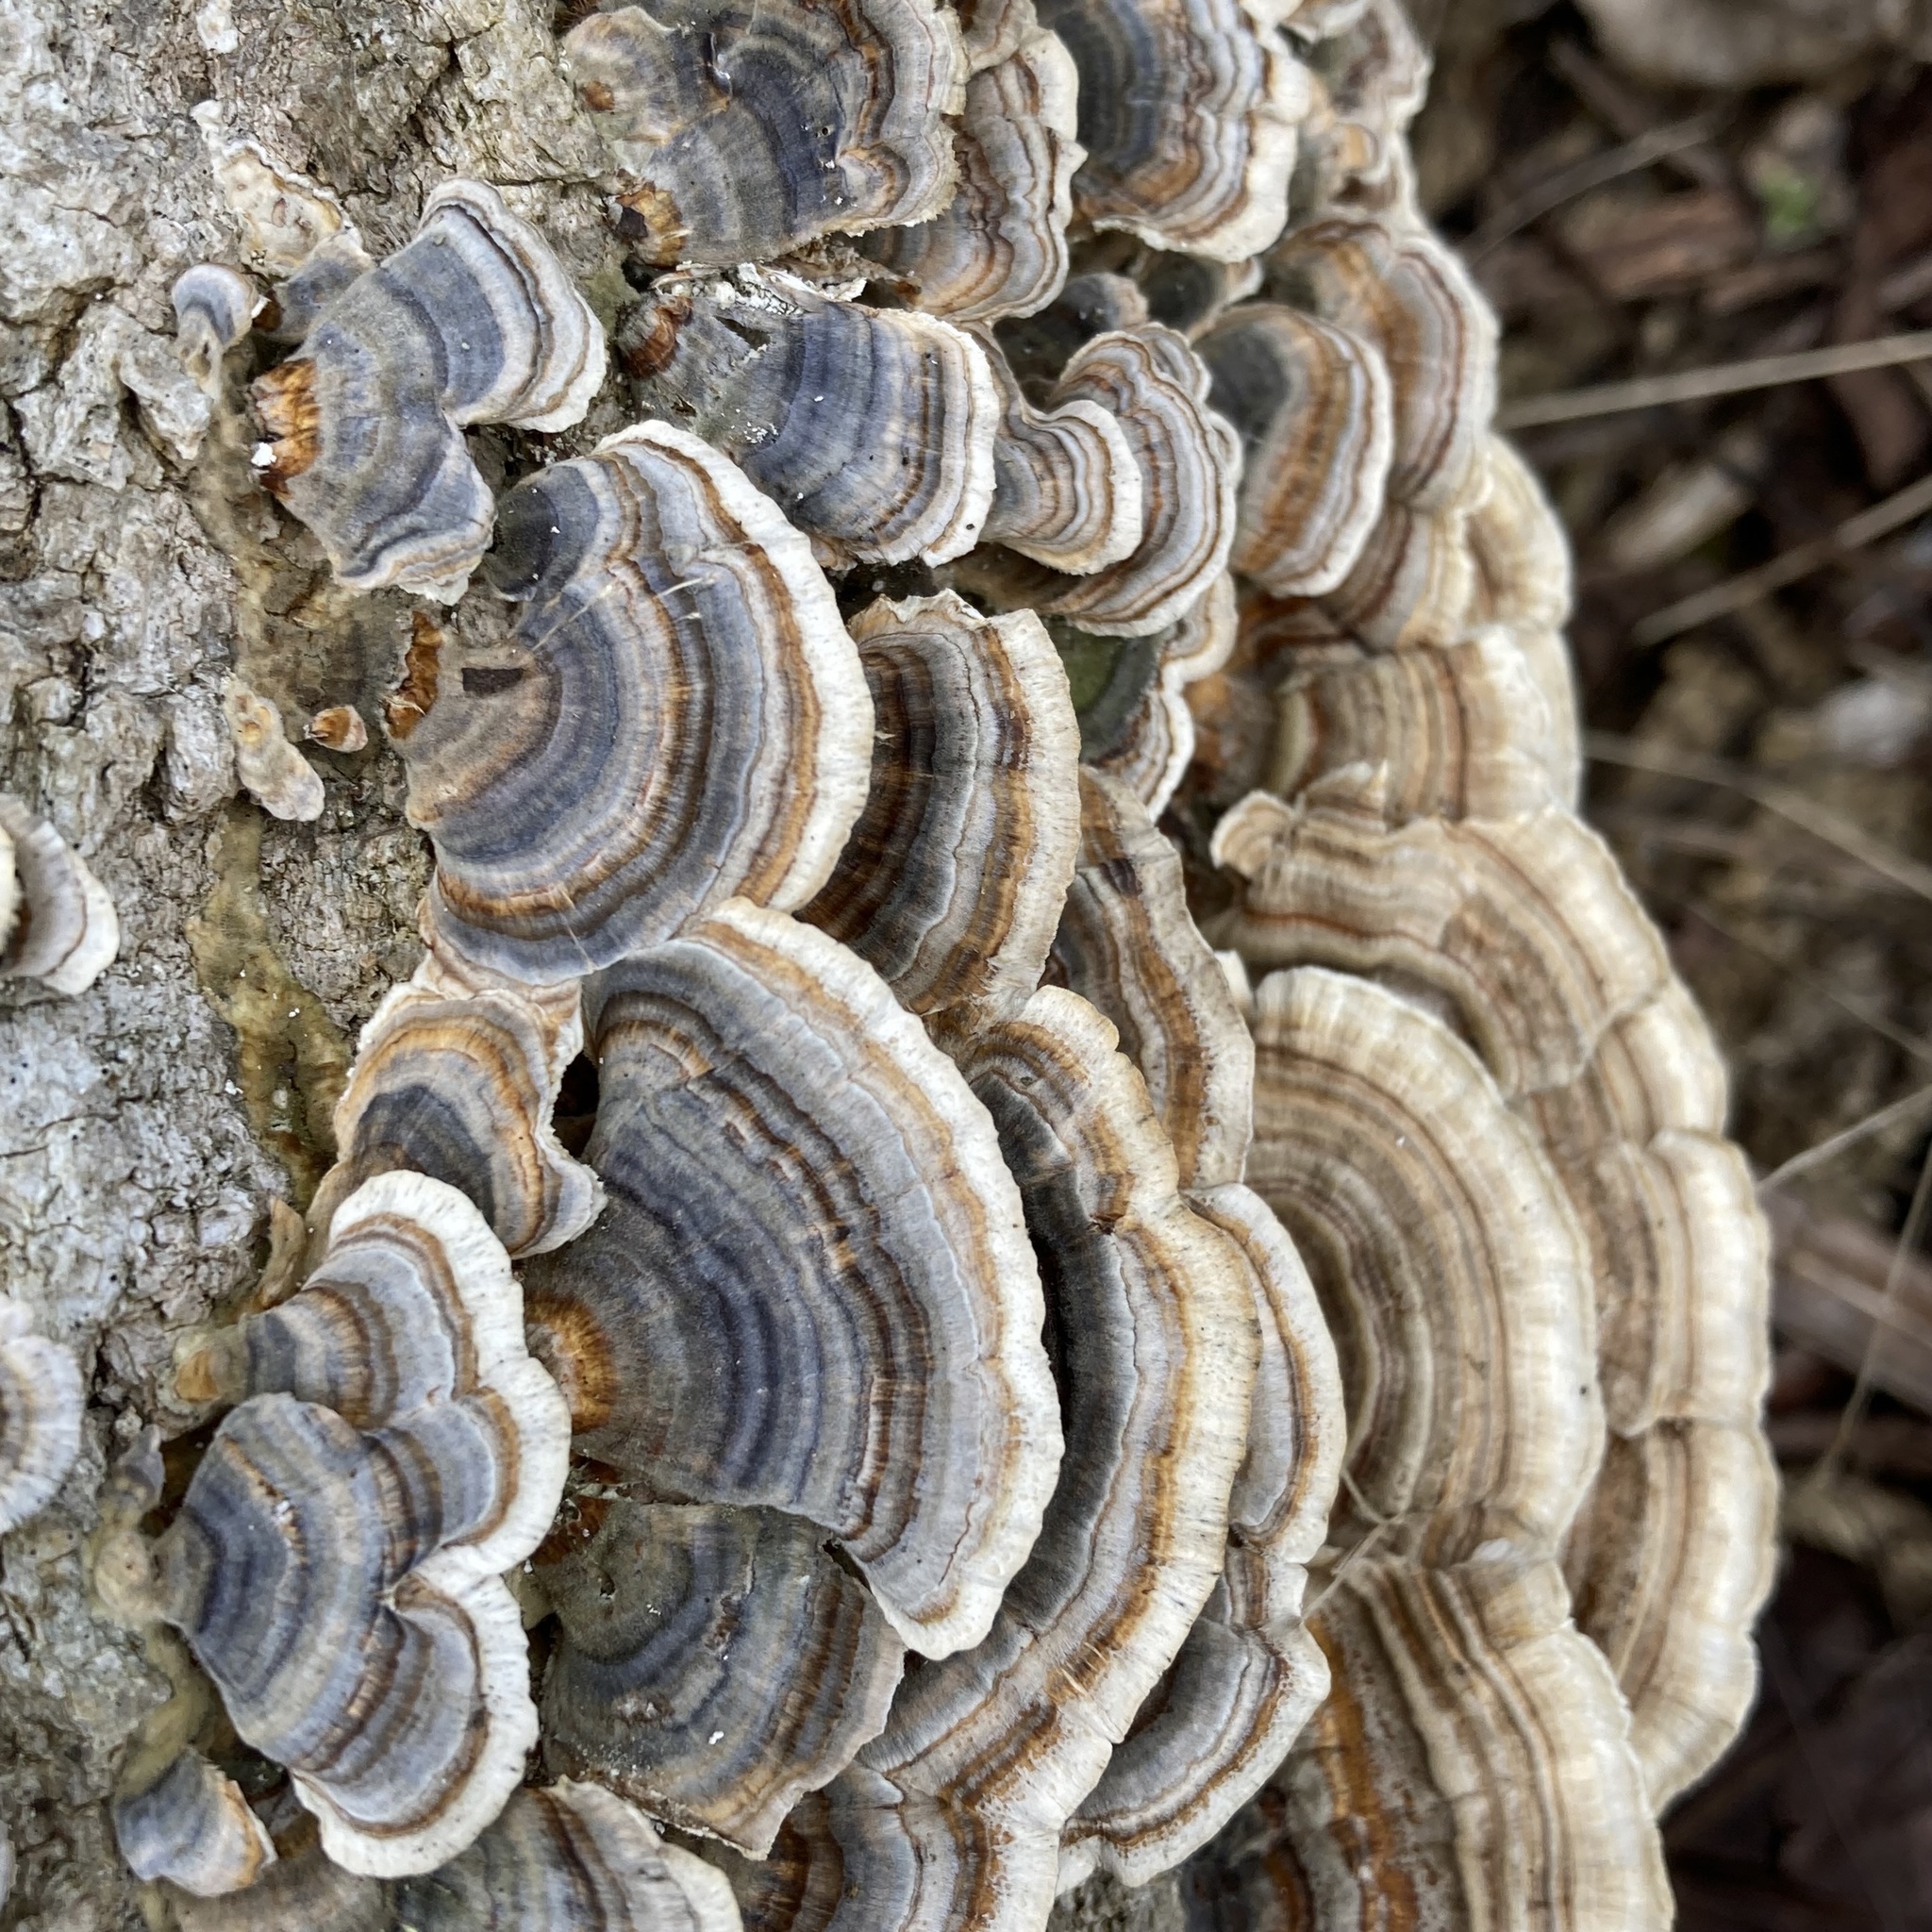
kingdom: Fungi
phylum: Basidiomycota
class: Agaricomycetes
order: Polyporales
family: Polyporaceae
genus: Trametes
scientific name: Trametes versicolor
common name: Turkeytail
